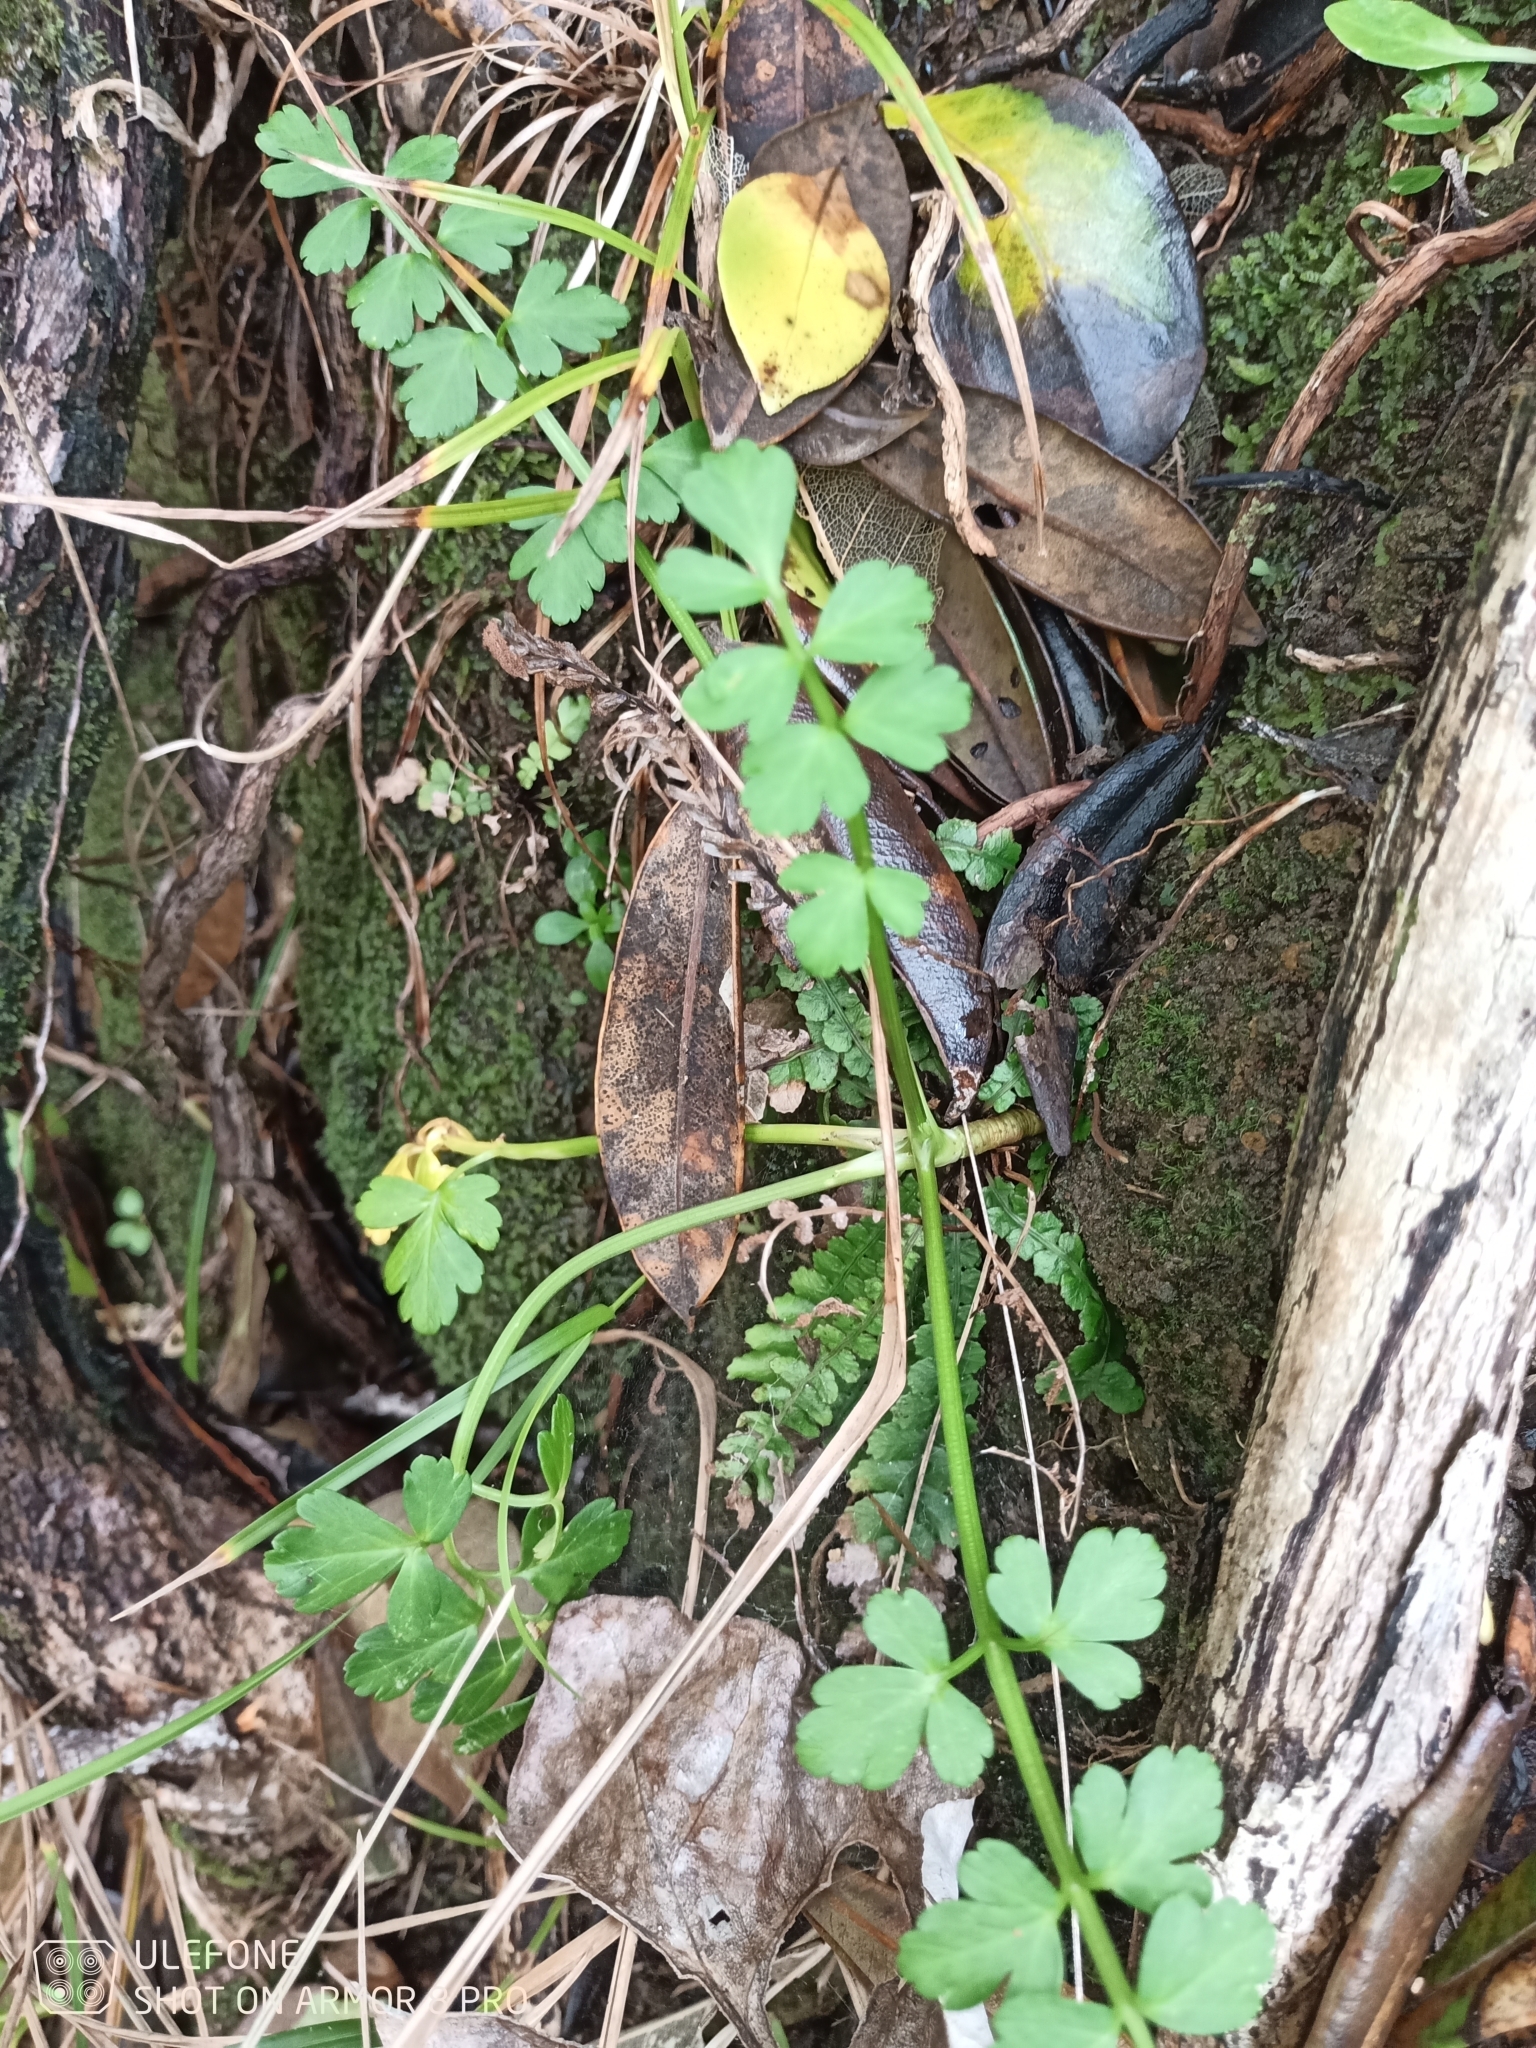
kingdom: Plantae
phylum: Tracheophyta
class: Magnoliopsida
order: Apiales
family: Apiaceae
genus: Apium
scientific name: Apium prostratum
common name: Prostrate marshwort
